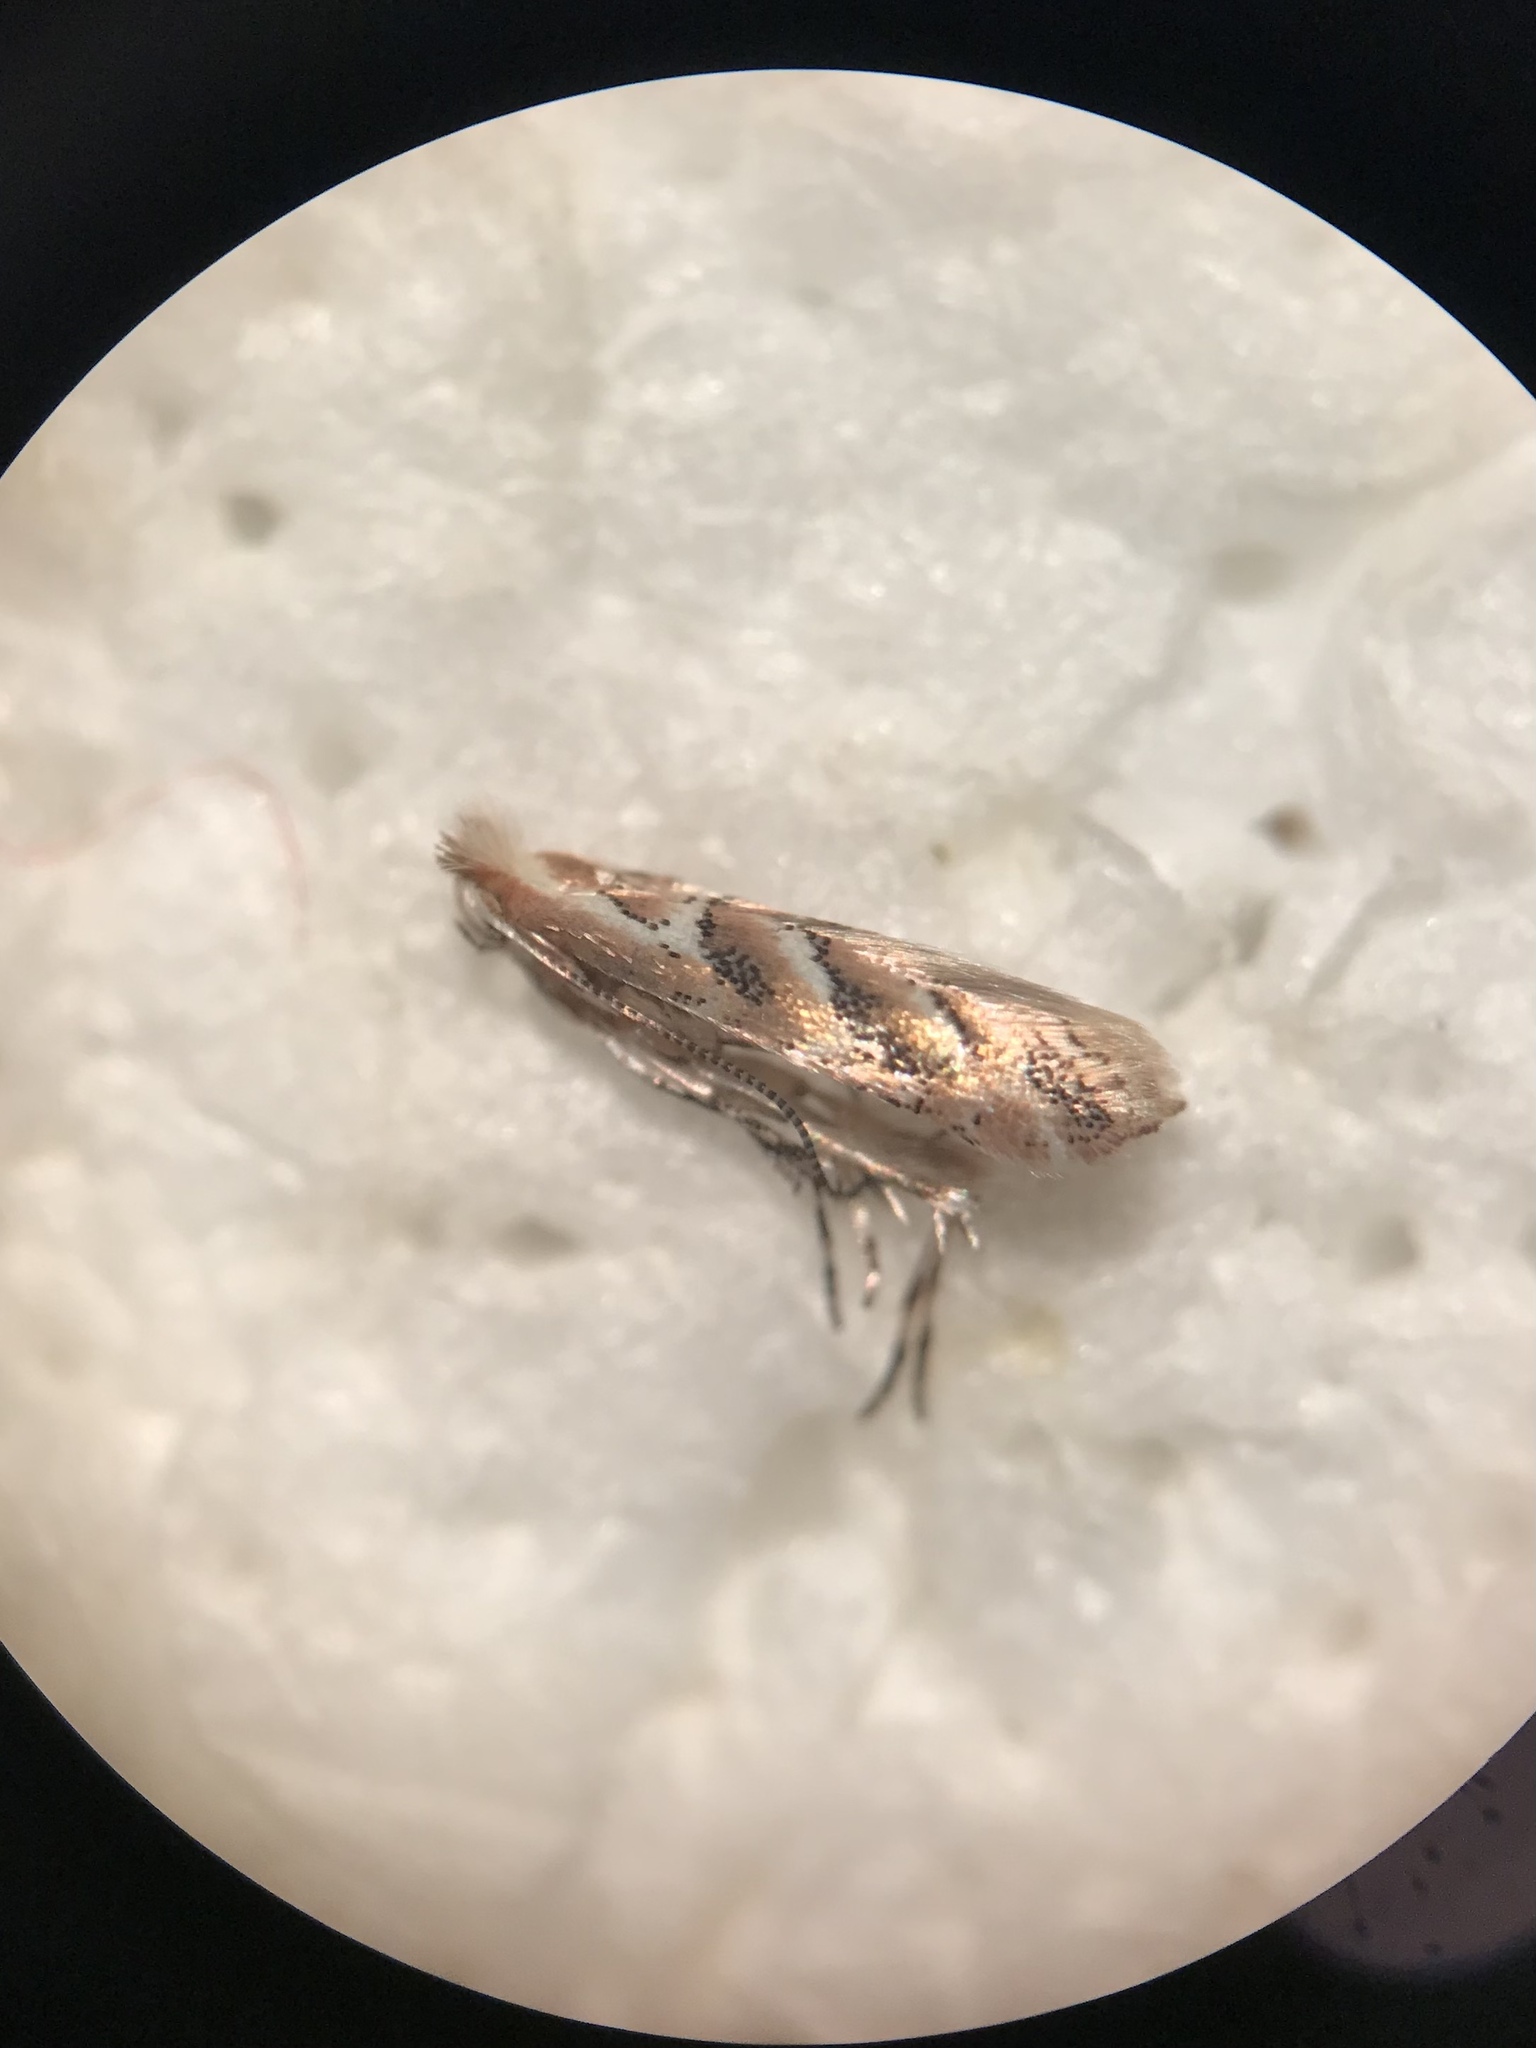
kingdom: Animalia
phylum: Arthropoda
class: Insecta
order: Lepidoptera
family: Gracillariidae
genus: Cameraria
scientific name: Cameraria macrocarpella
